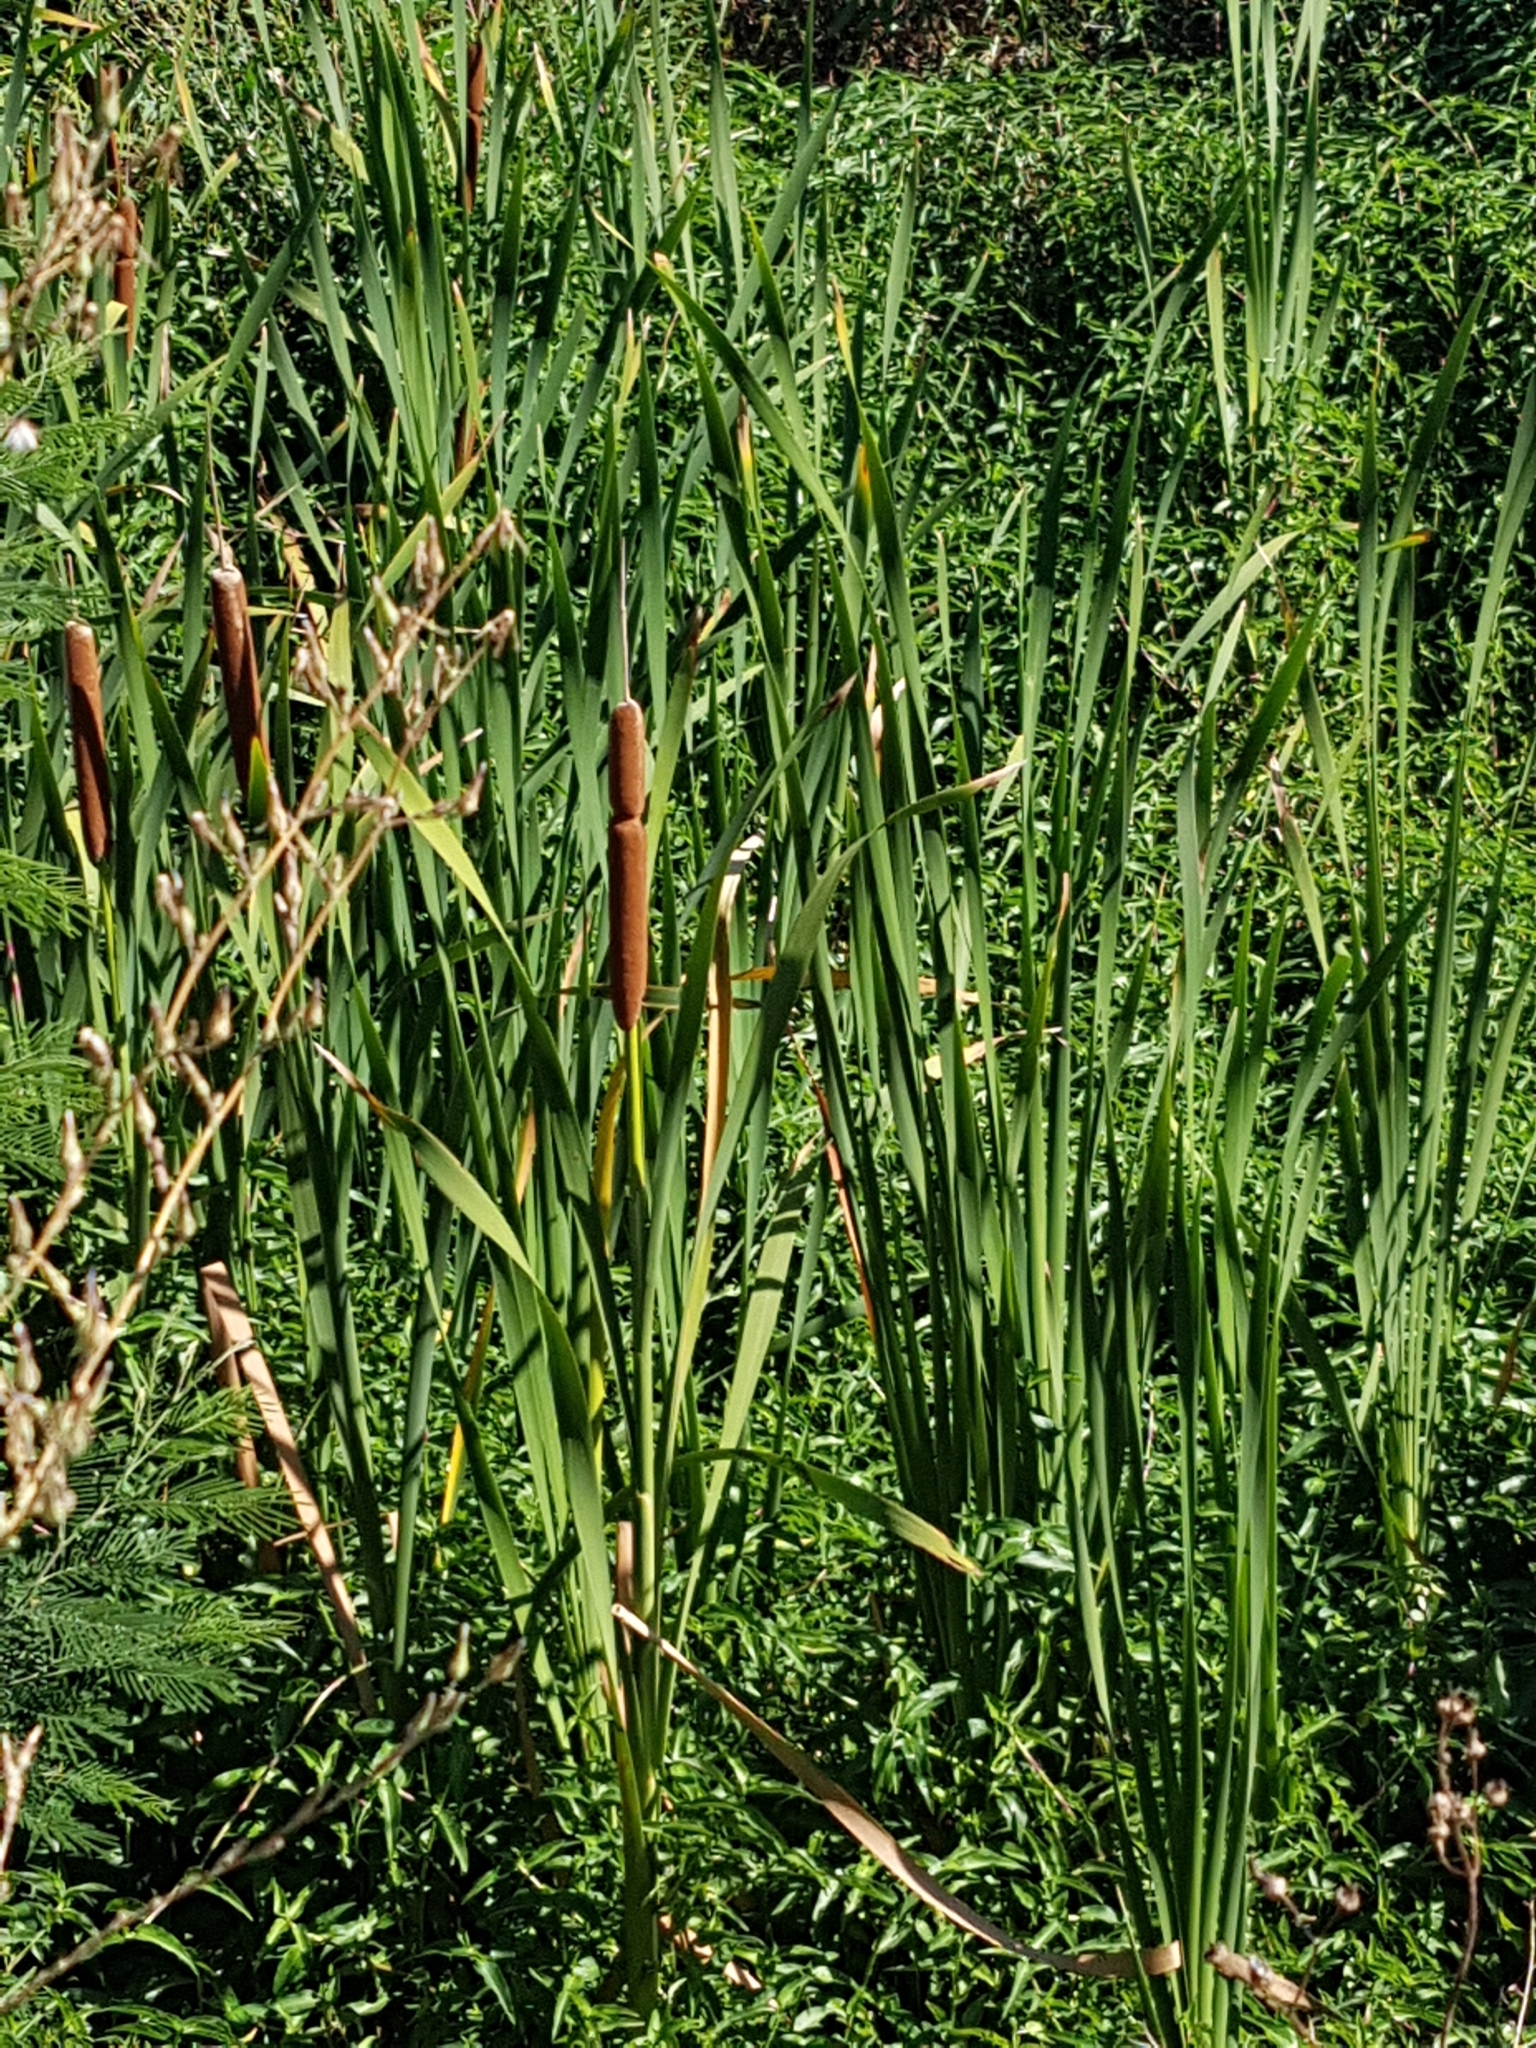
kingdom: Plantae
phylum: Tracheophyta
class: Liliopsida
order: Poales
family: Typhaceae
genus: Typha
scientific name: Typha capensis
